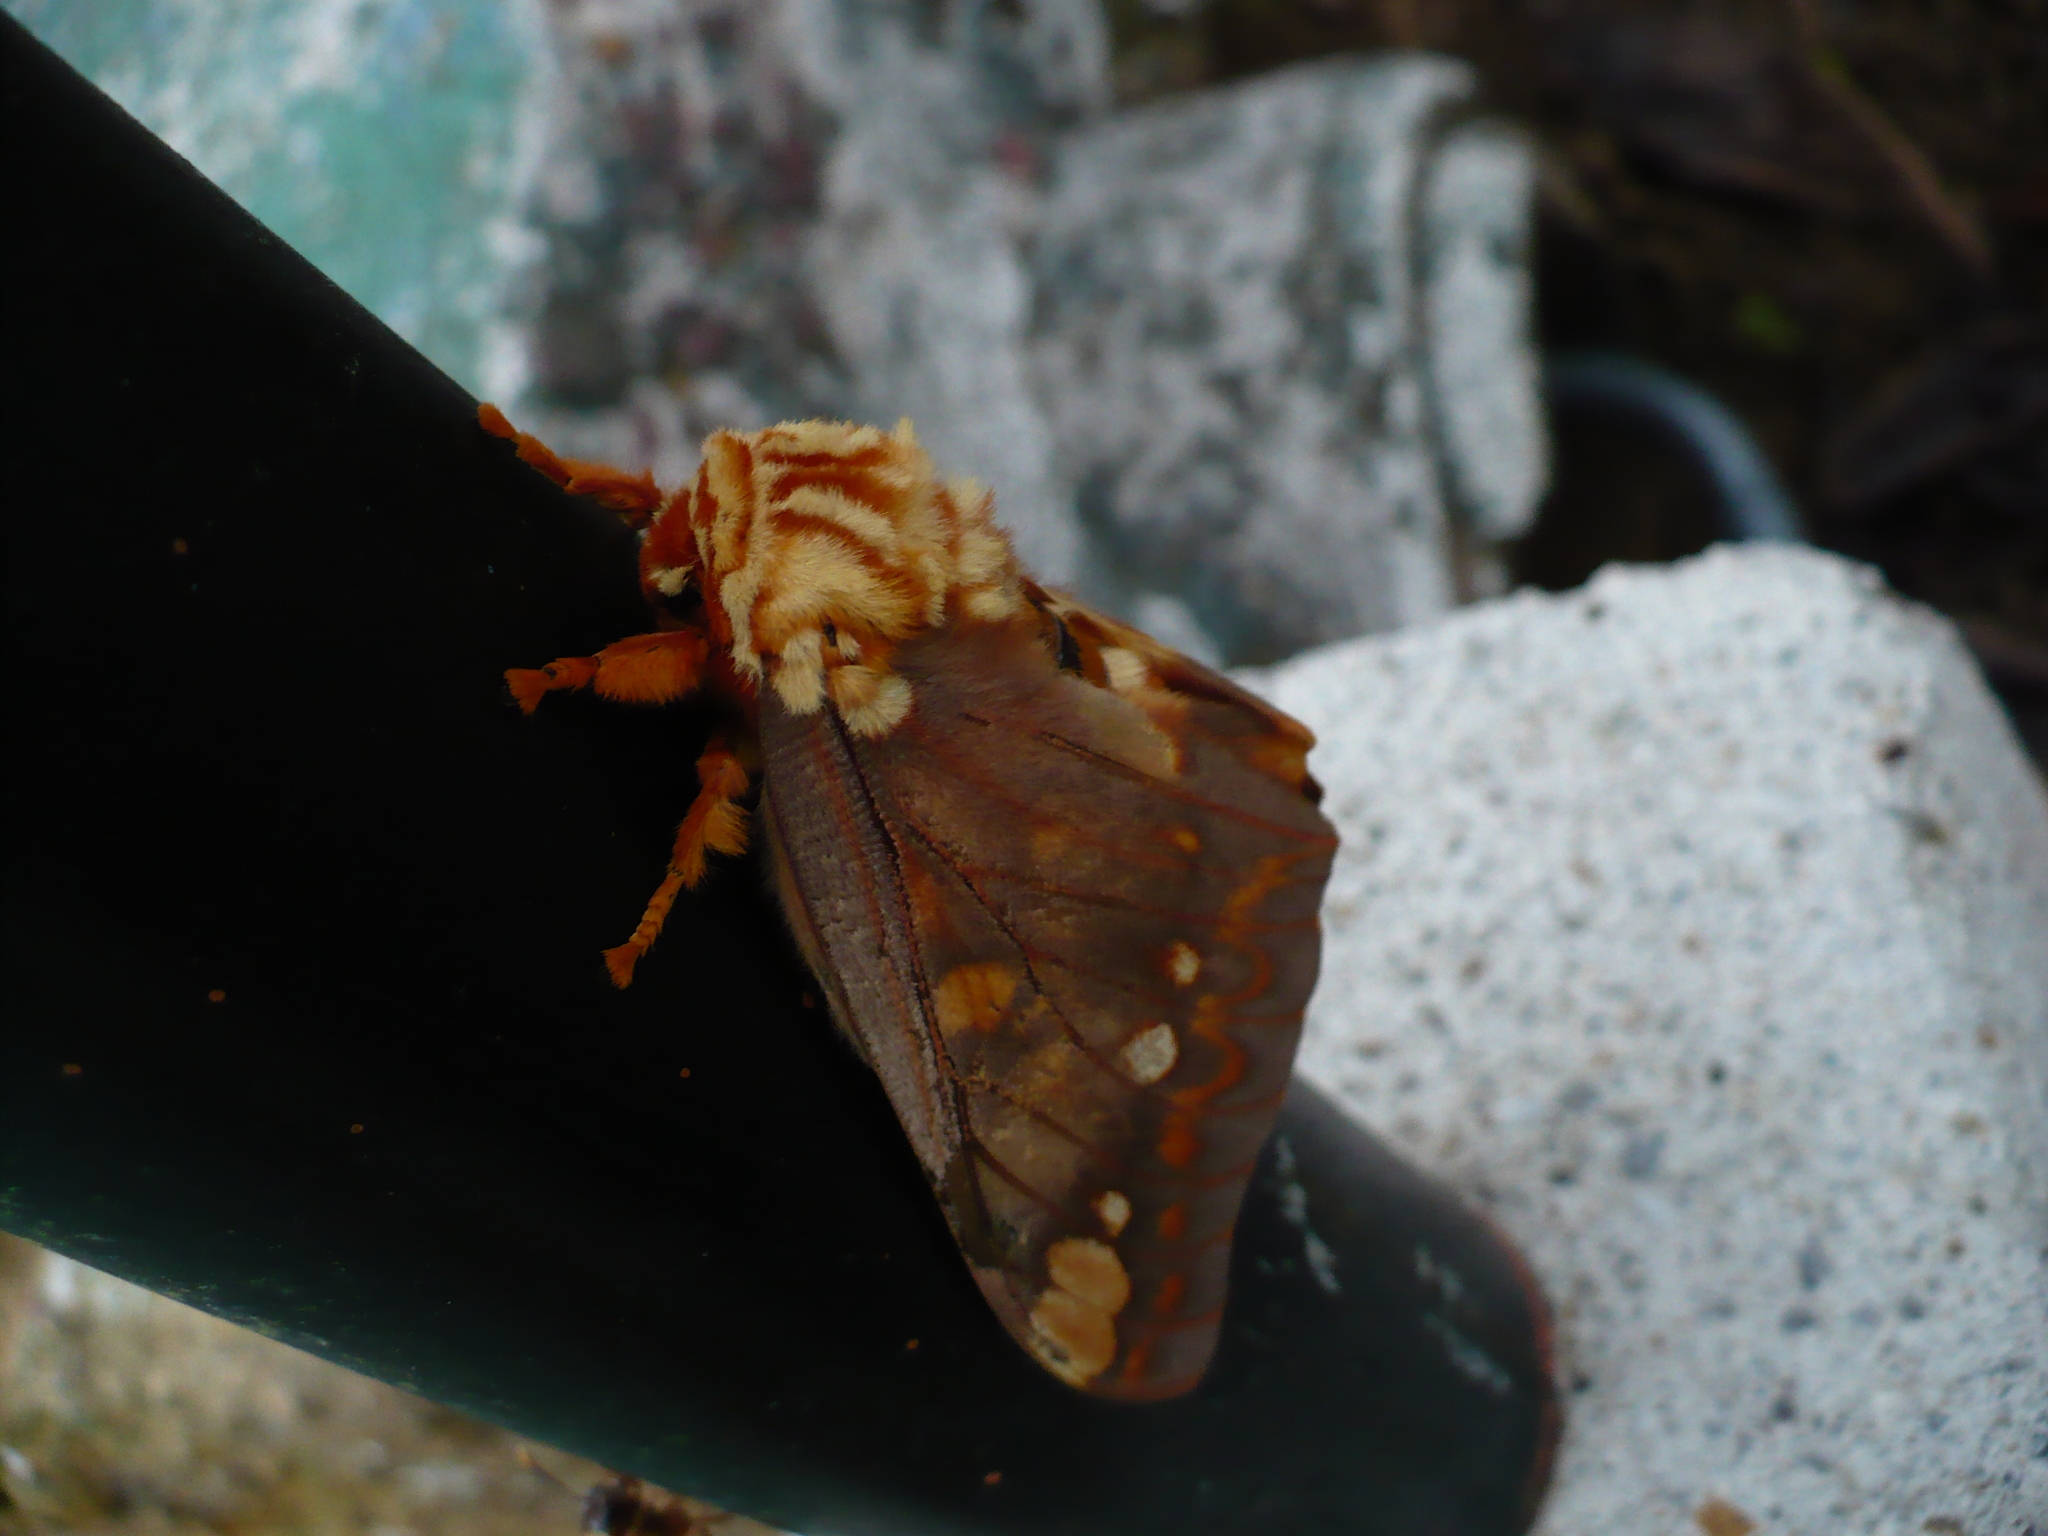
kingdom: Animalia
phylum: Arthropoda
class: Insecta
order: Lepidoptera
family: Saturniidae
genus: Citheronia
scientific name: Citheronia bellavista
